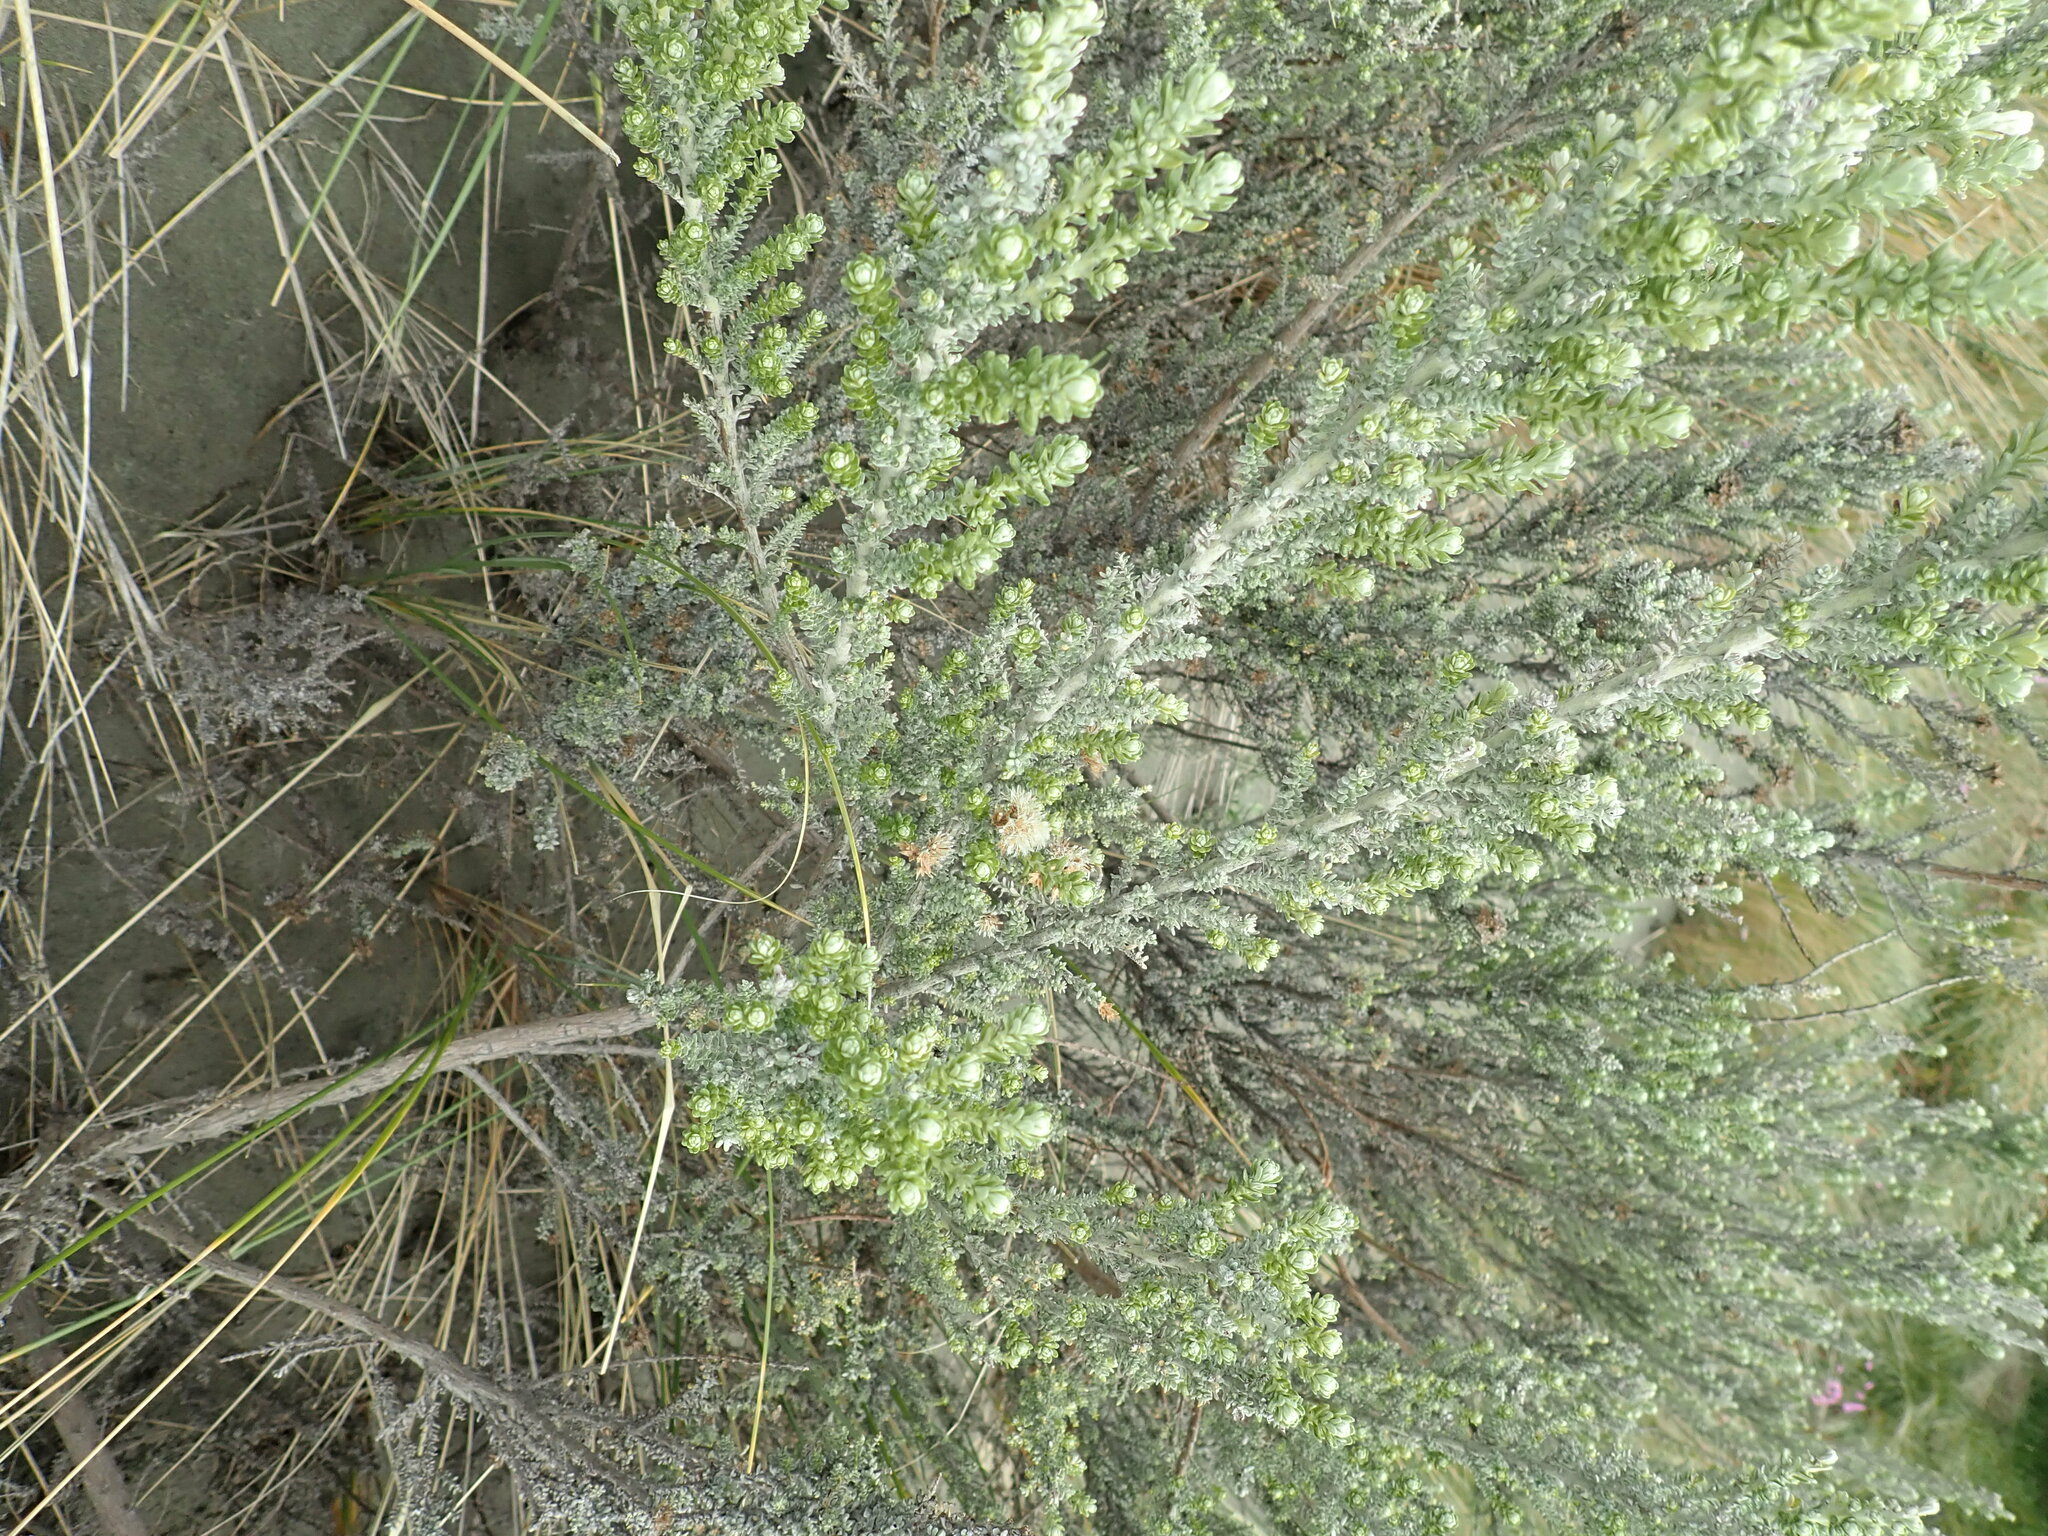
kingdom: Plantae
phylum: Tracheophyta
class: Magnoliopsida
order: Asterales
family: Asteraceae
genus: Ozothamnus
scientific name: Ozothamnus leptophyllus
